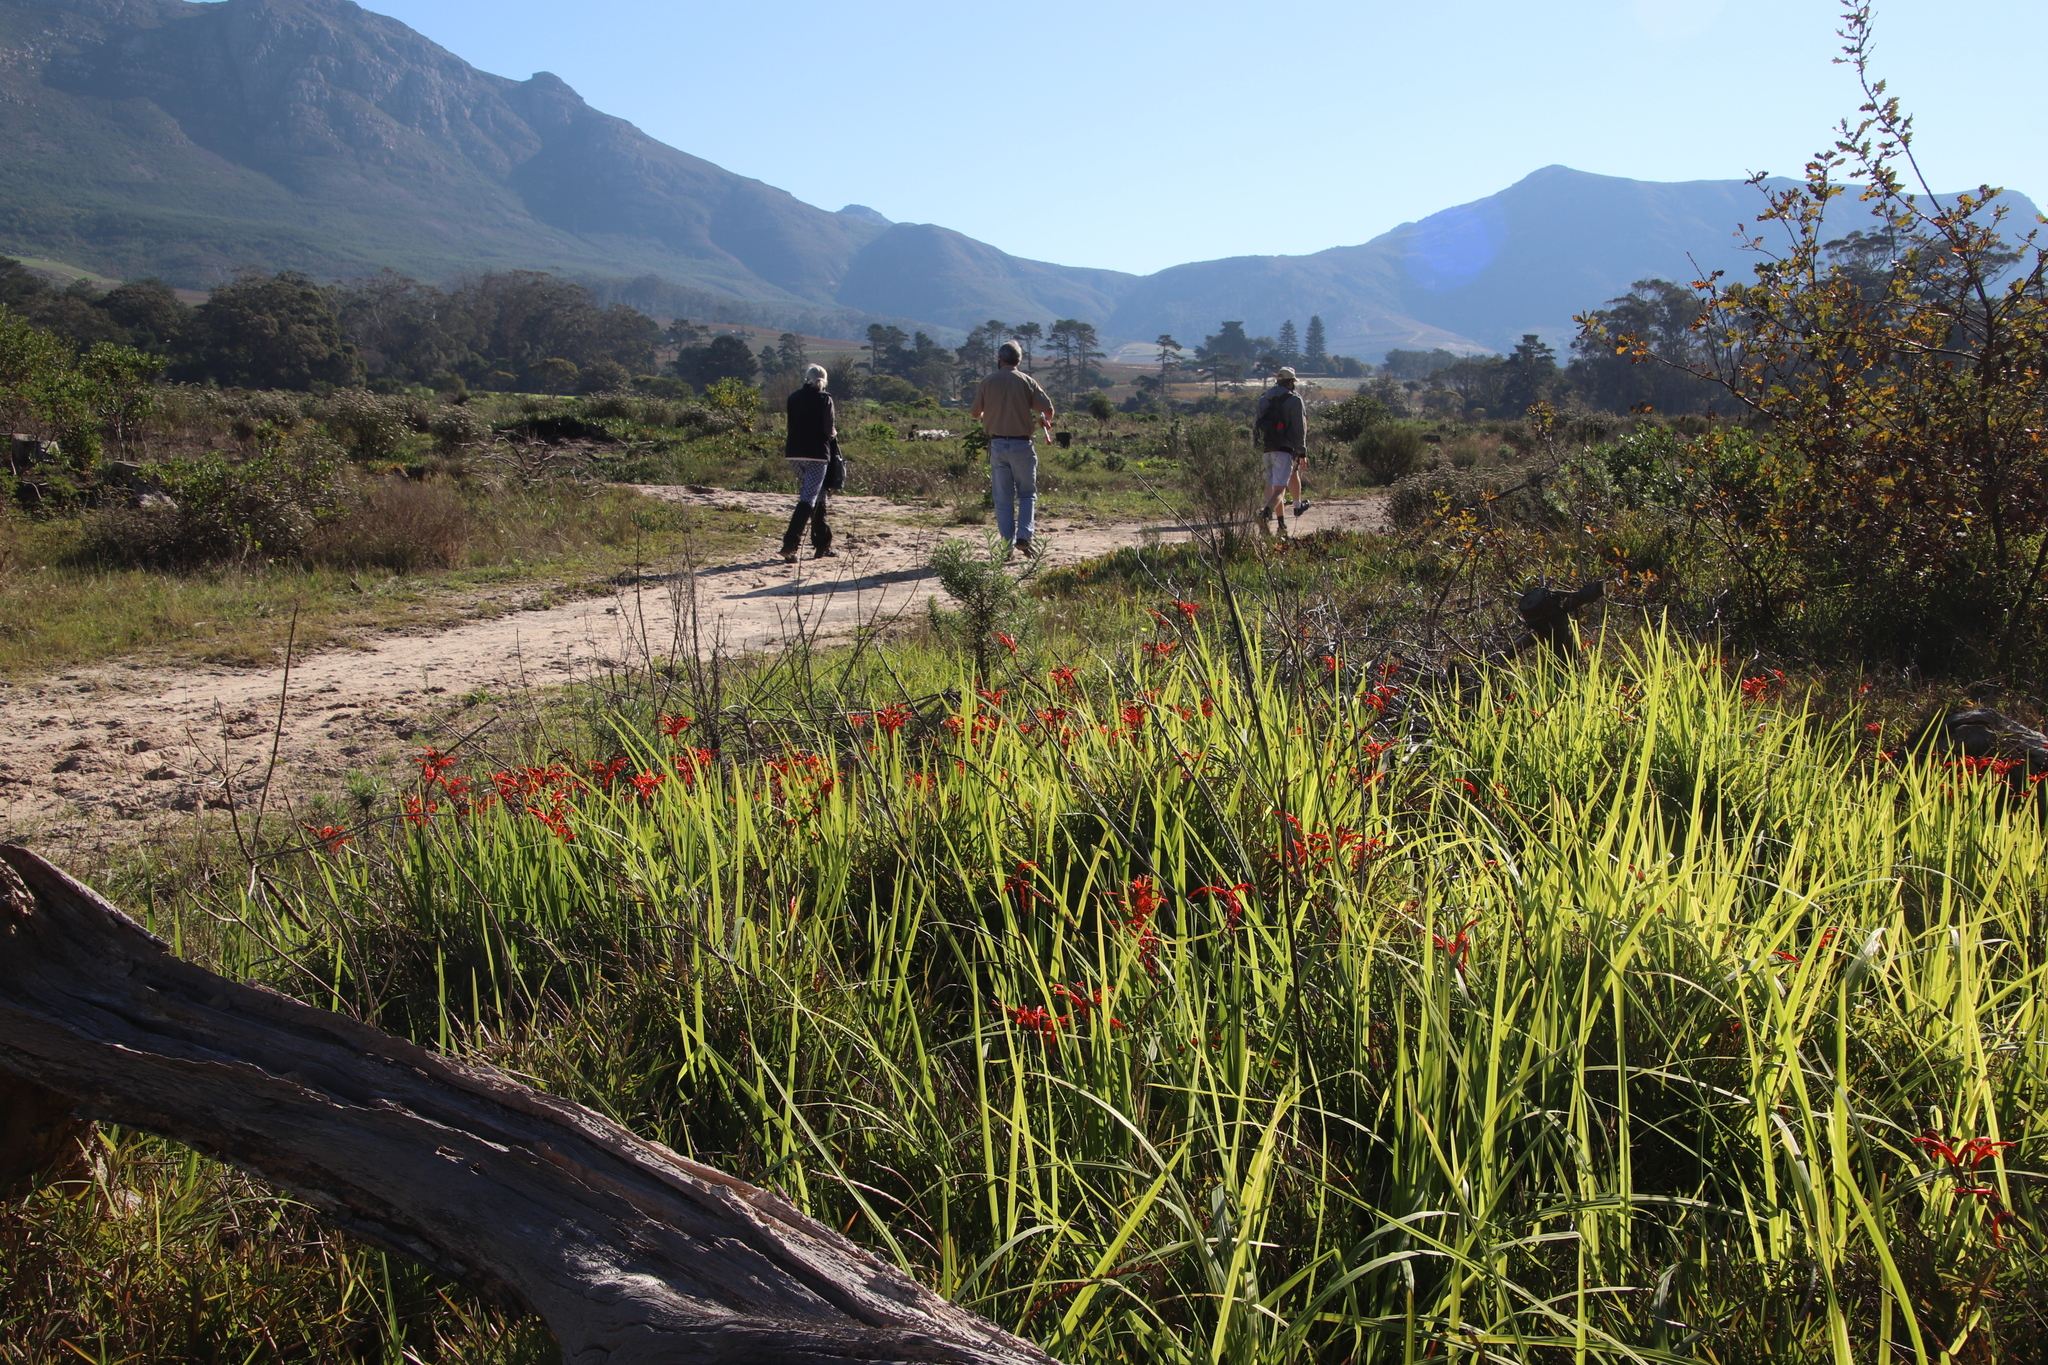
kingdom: Plantae
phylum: Tracheophyta
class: Liliopsida
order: Asparagales
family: Iridaceae
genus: Chasmanthe
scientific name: Chasmanthe aethiopica
